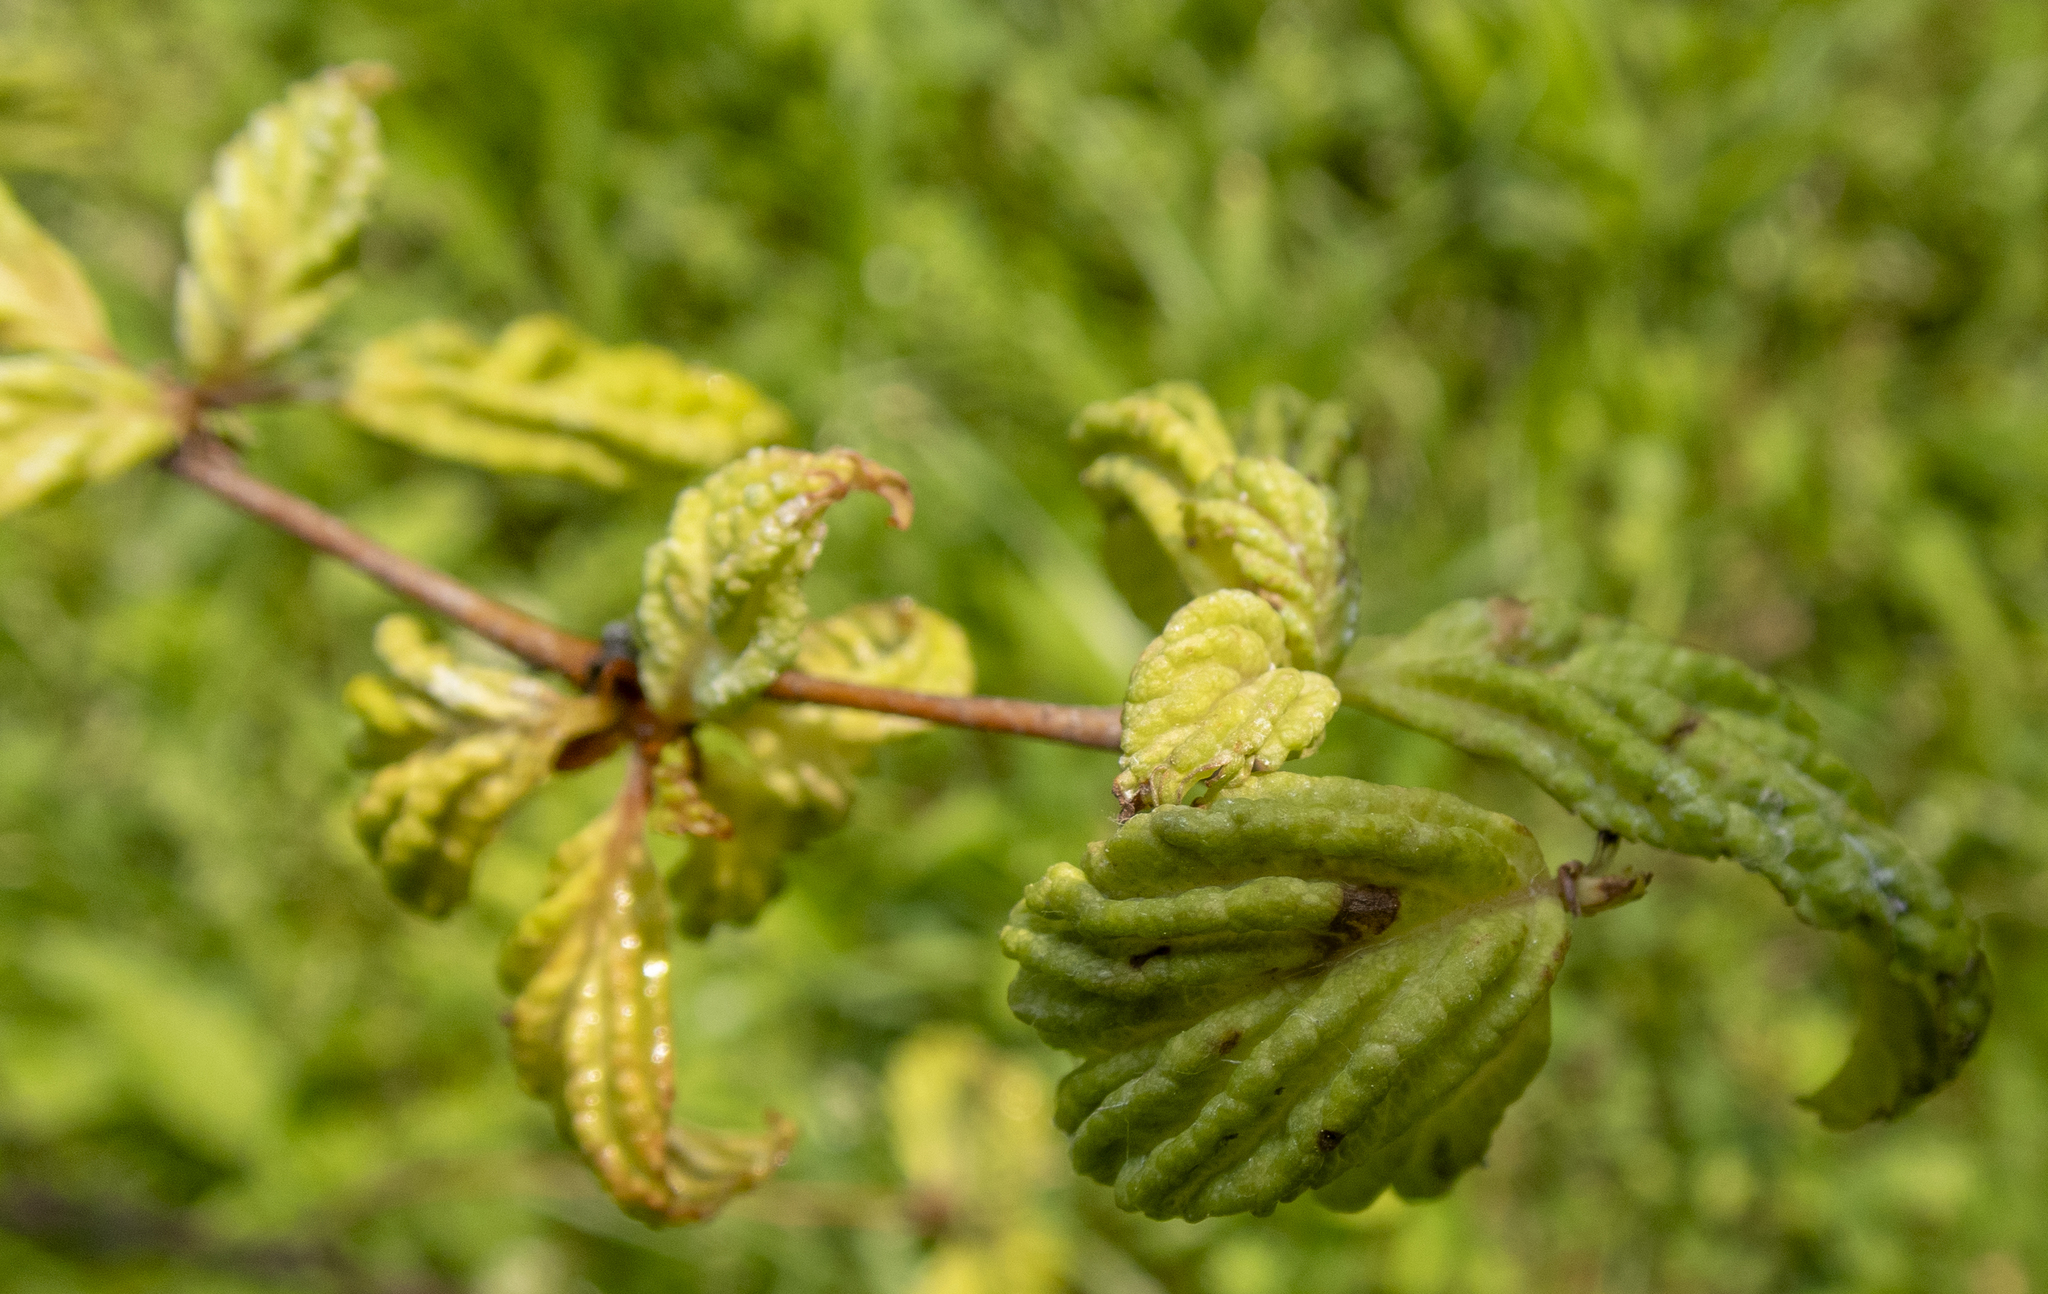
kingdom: Animalia
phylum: Arthropoda
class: Insecta
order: Hemiptera
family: Aphididae
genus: Hamamelistes
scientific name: Hamamelistes spinosus
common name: Witch hazel gall aphid
